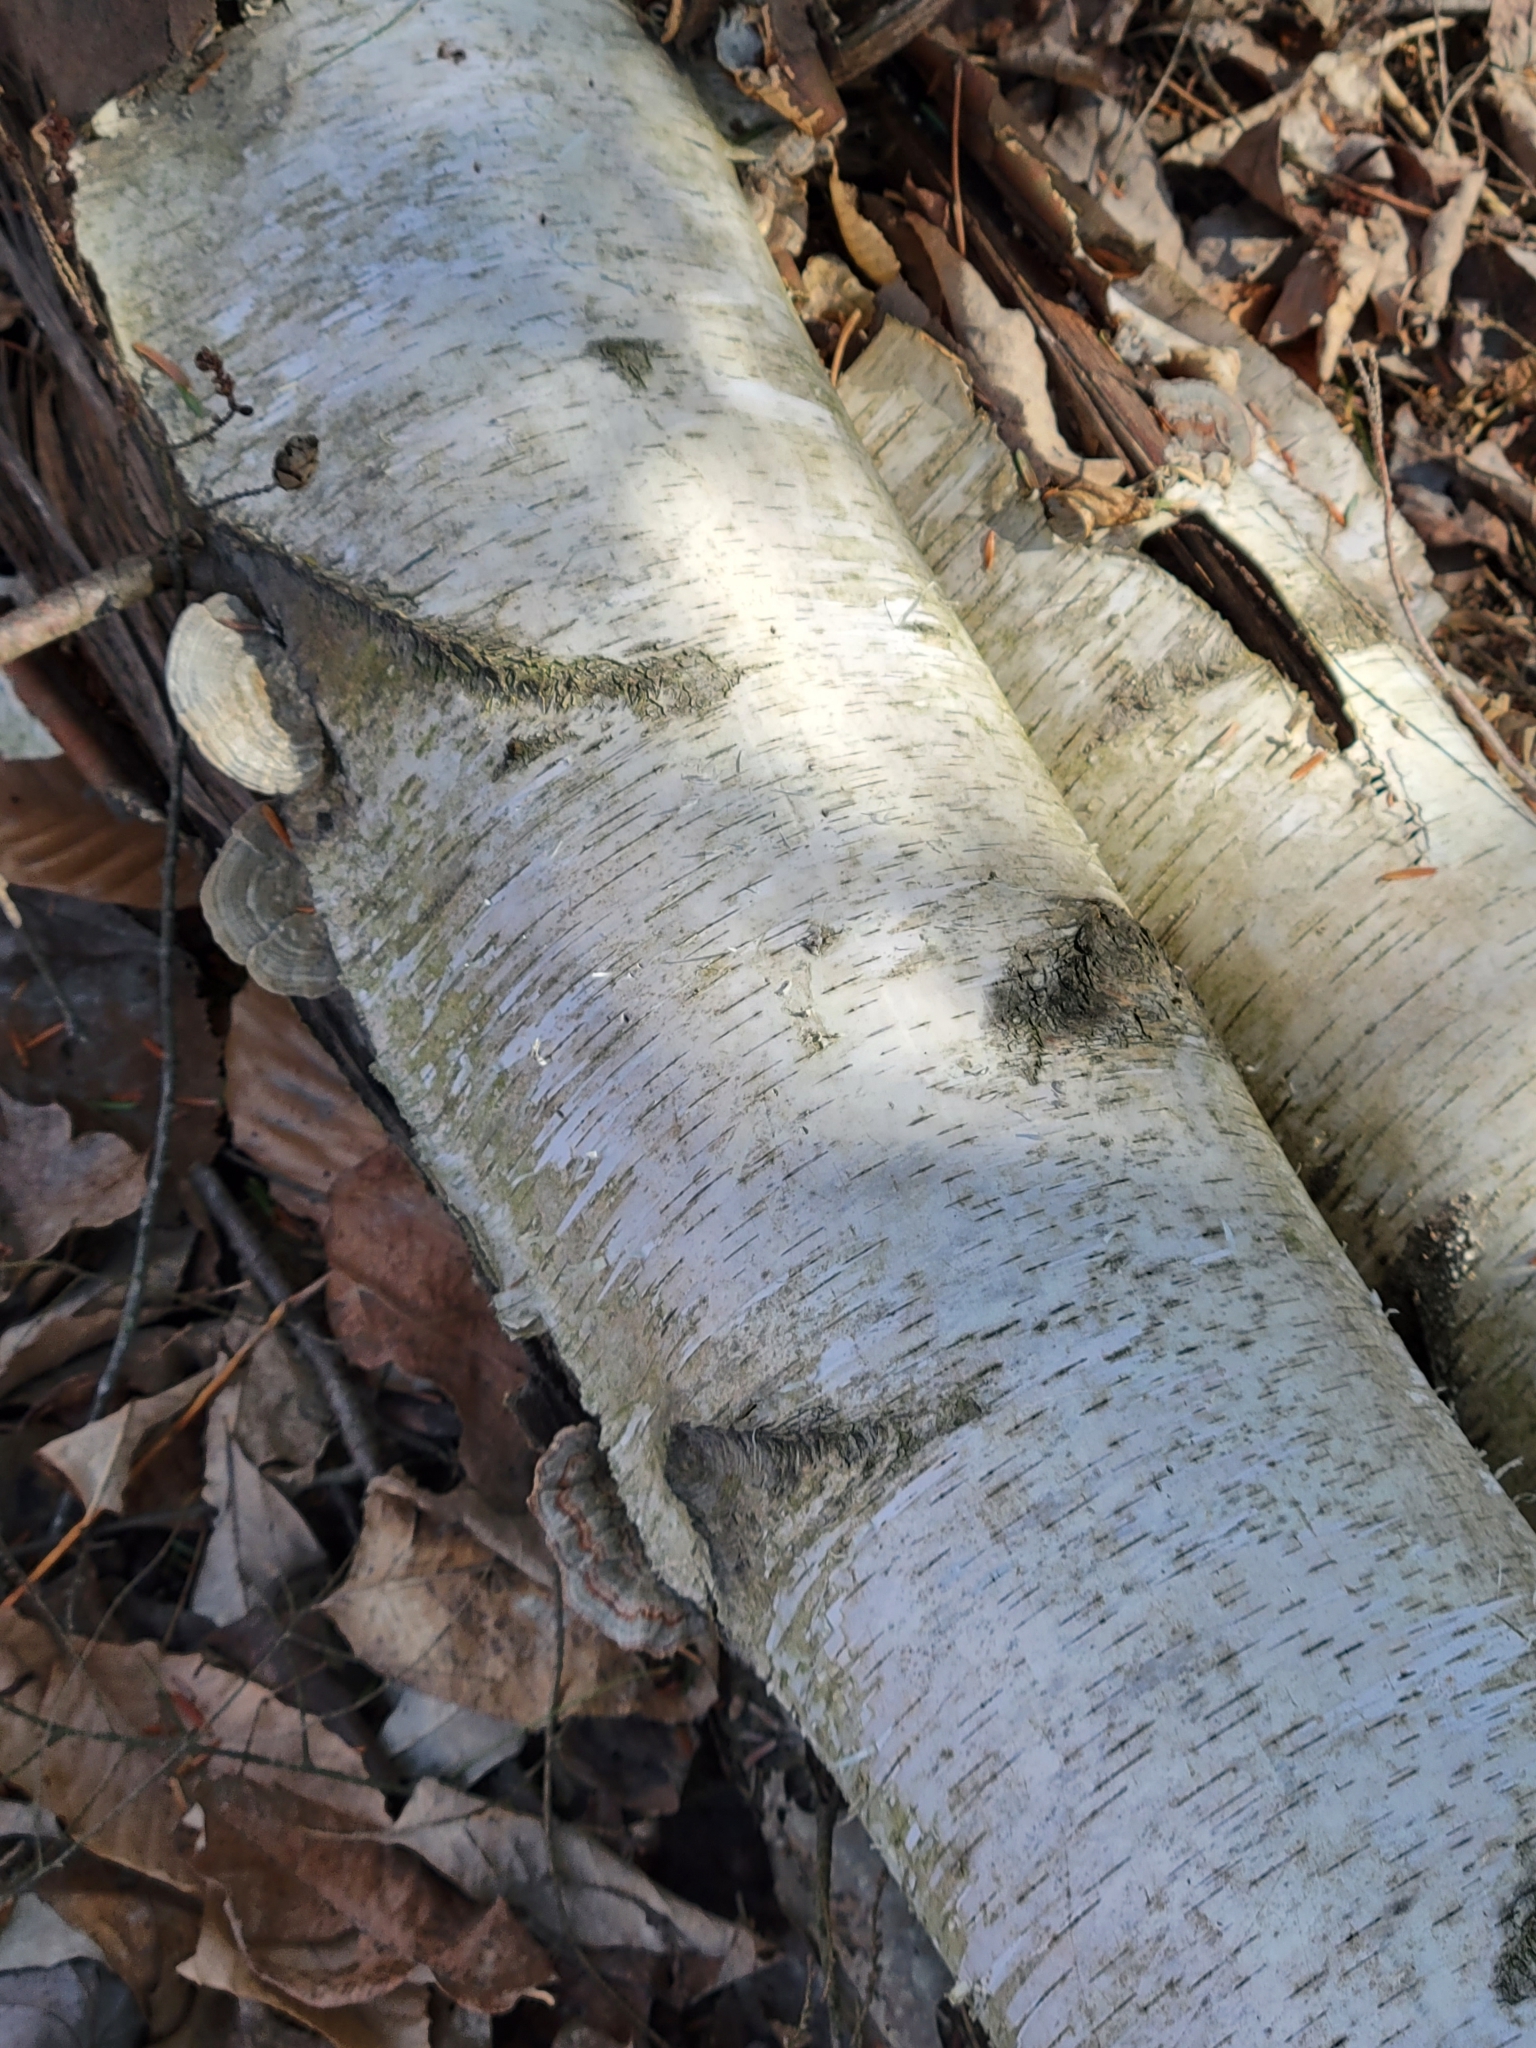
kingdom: Fungi
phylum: Basidiomycota
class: Agaricomycetes
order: Polyporales
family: Polyporaceae
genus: Lenzites
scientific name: Lenzites betulinus
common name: Birch mazegill
